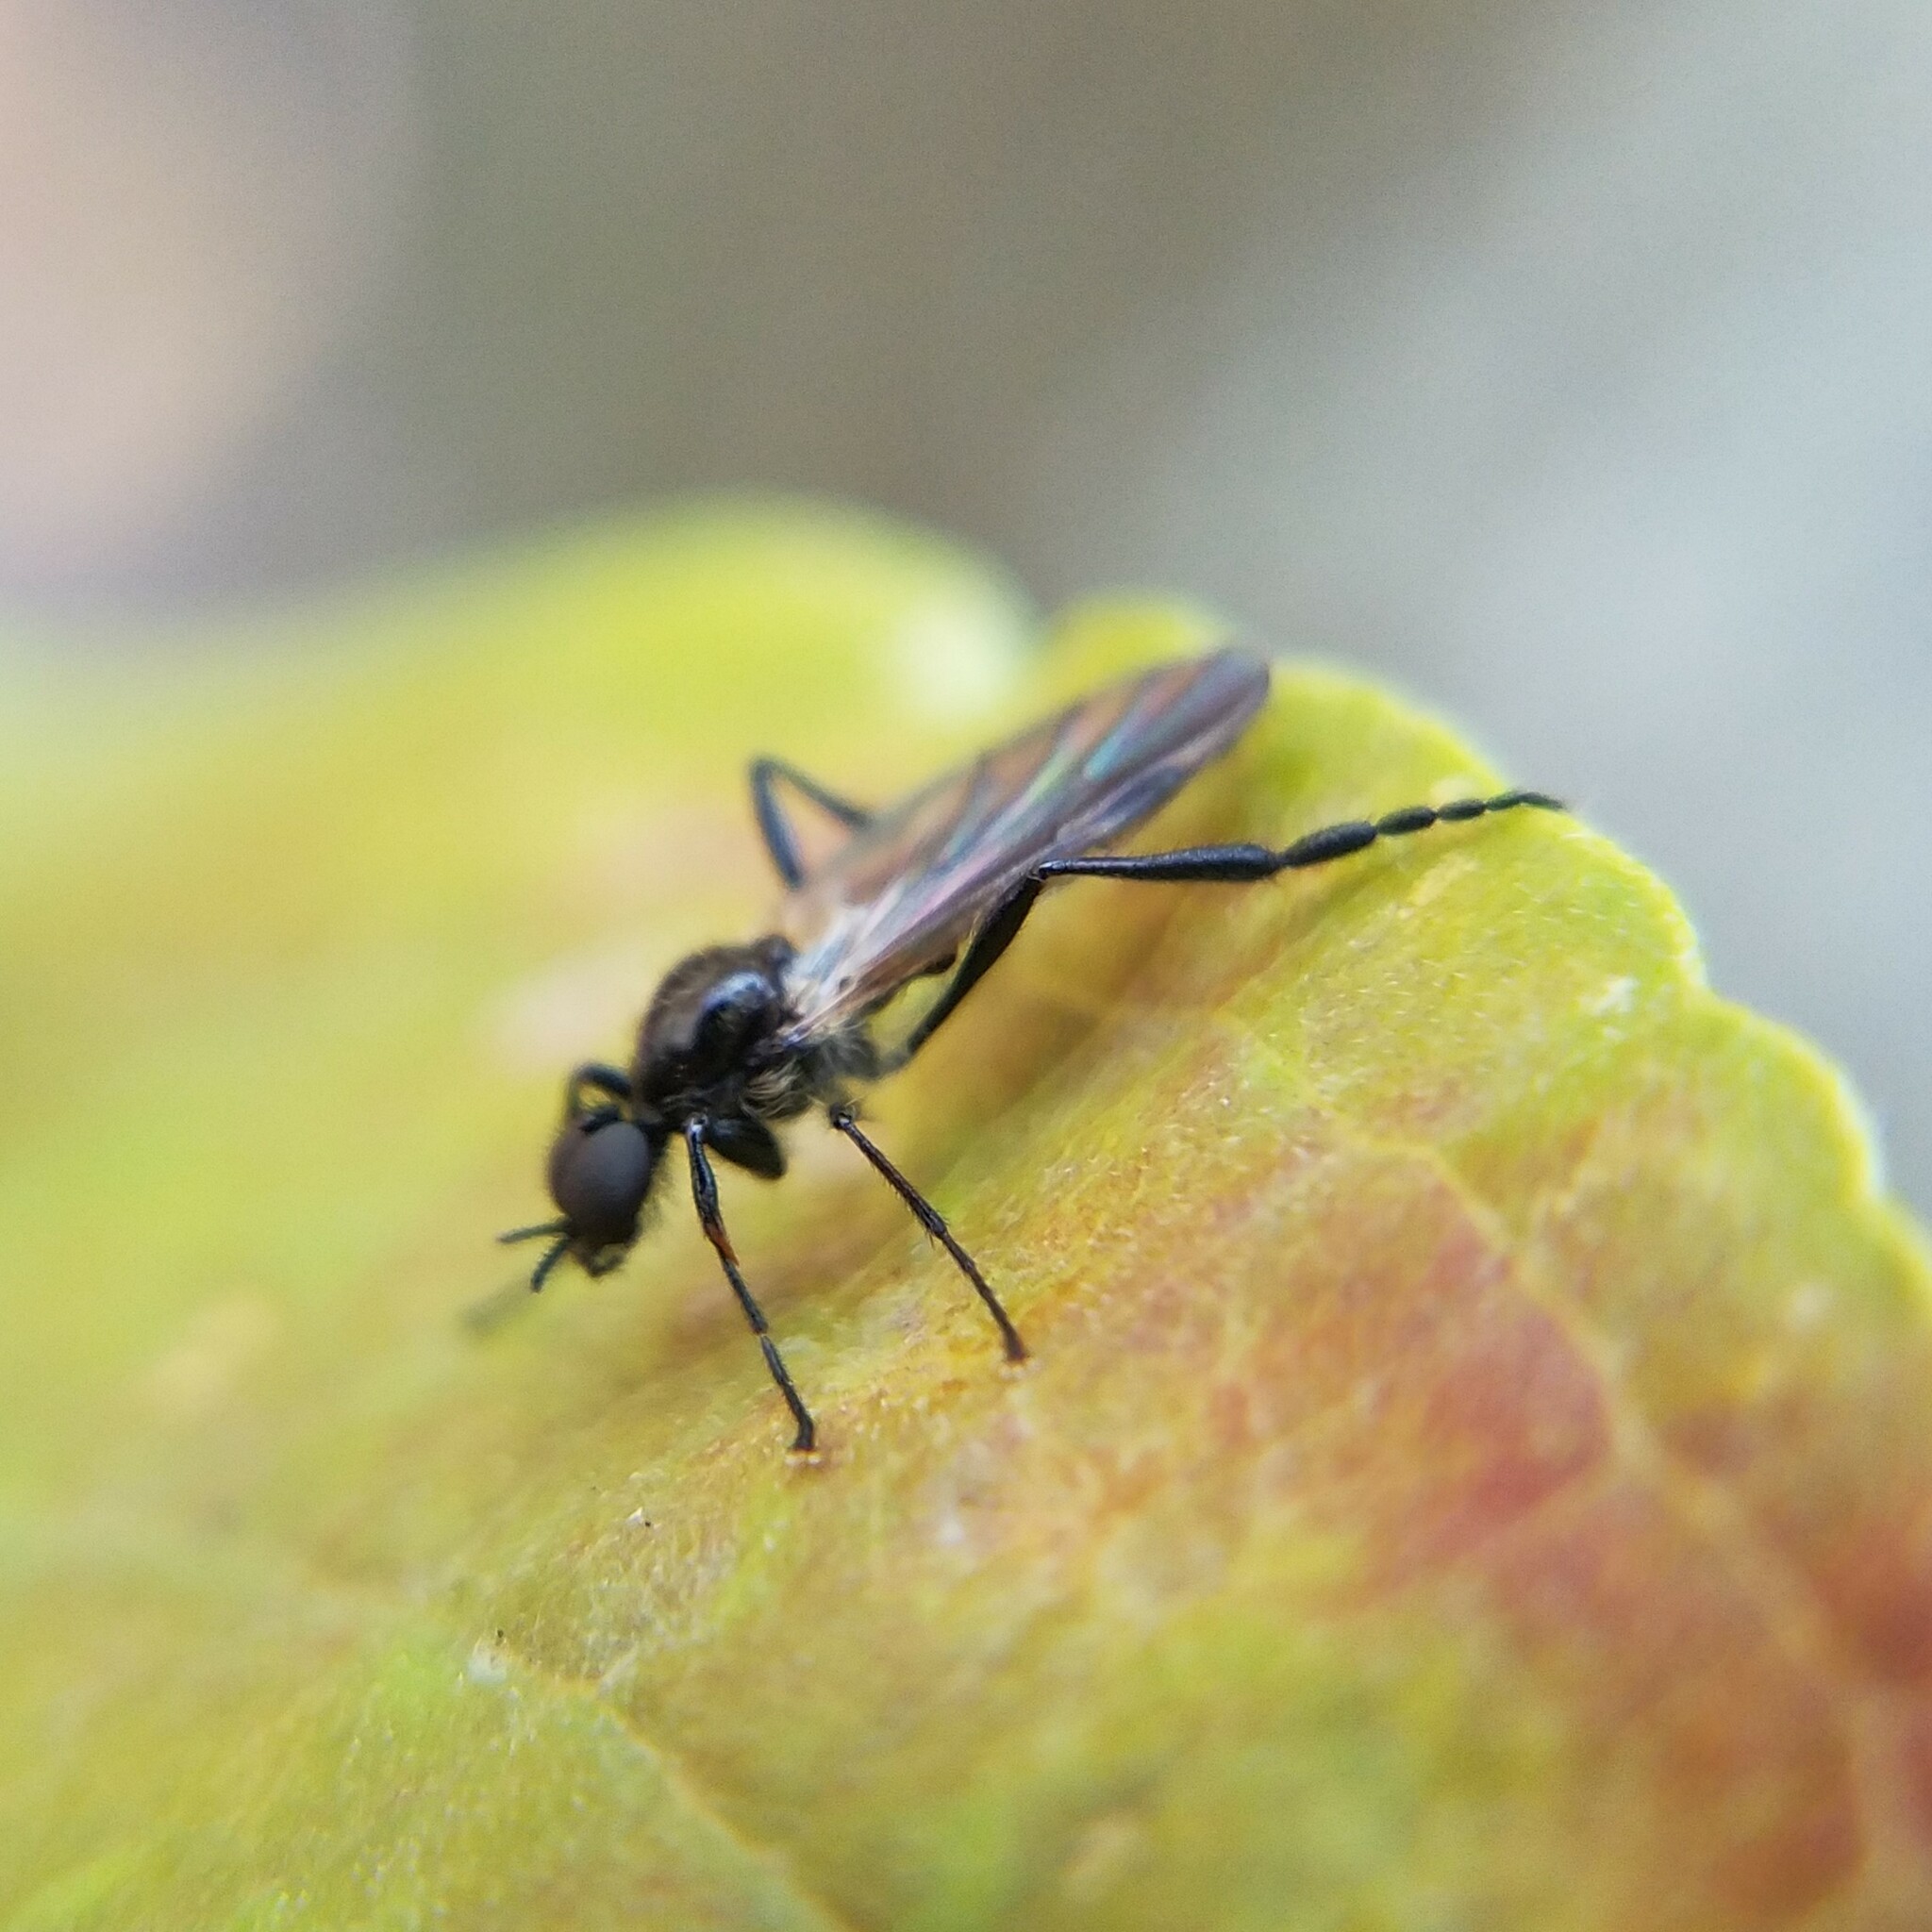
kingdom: Animalia
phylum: Arthropoda
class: Insecta
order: Diptera
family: Bibionidae
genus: Bibio
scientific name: Bibio longipes
